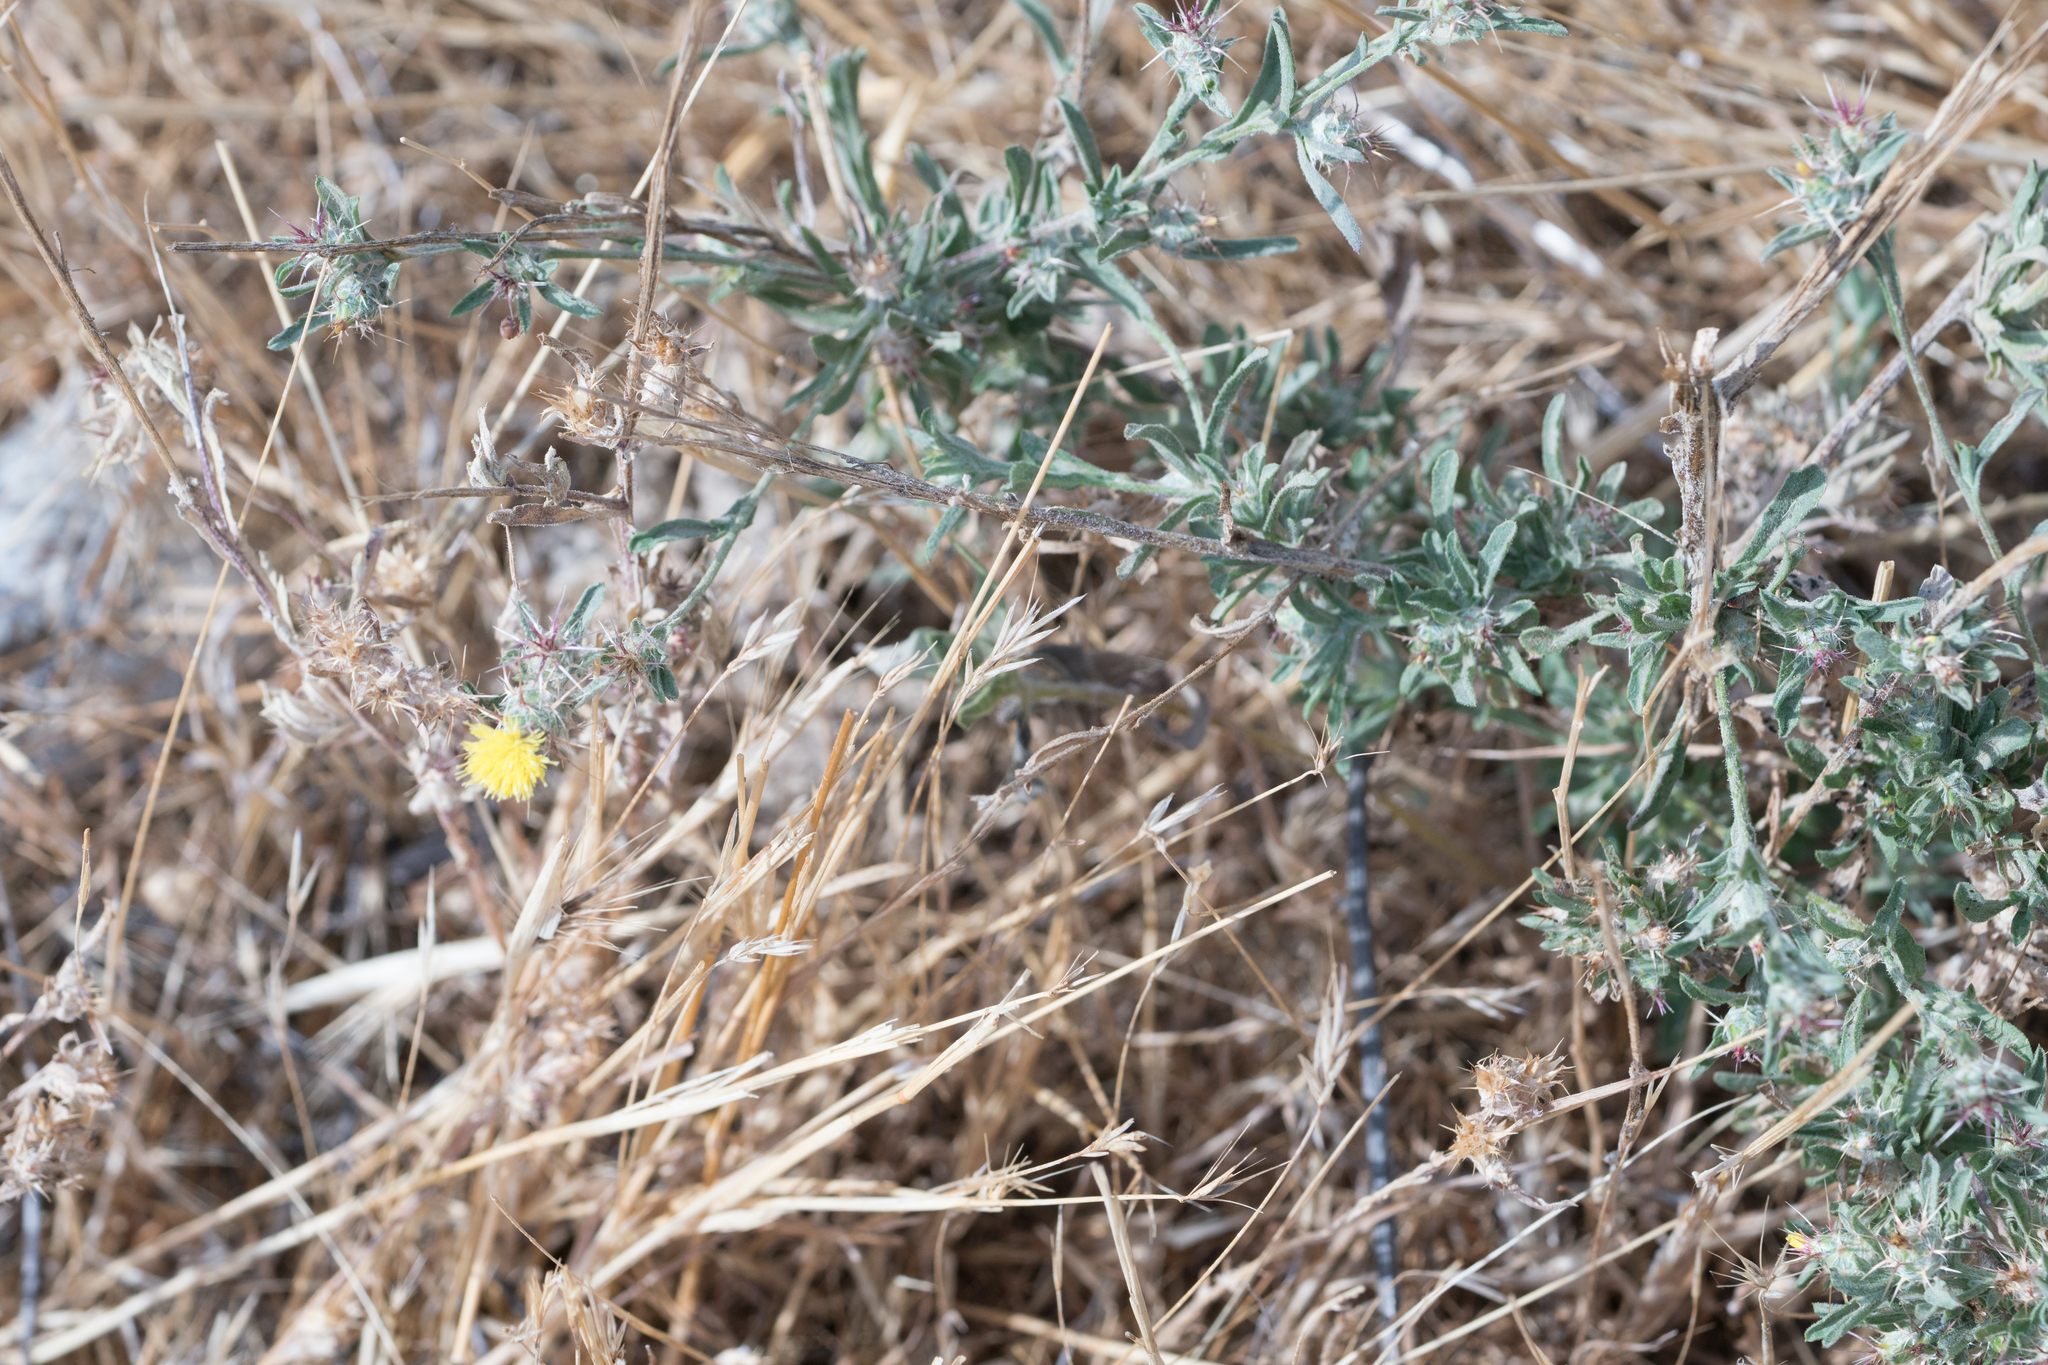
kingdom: Plantae
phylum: Tracheophyta
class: Magnoliopsida
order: Asterales
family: Asteraceae
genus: Centaurea
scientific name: Centaurea melitensis
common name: Maltese star-thistle
